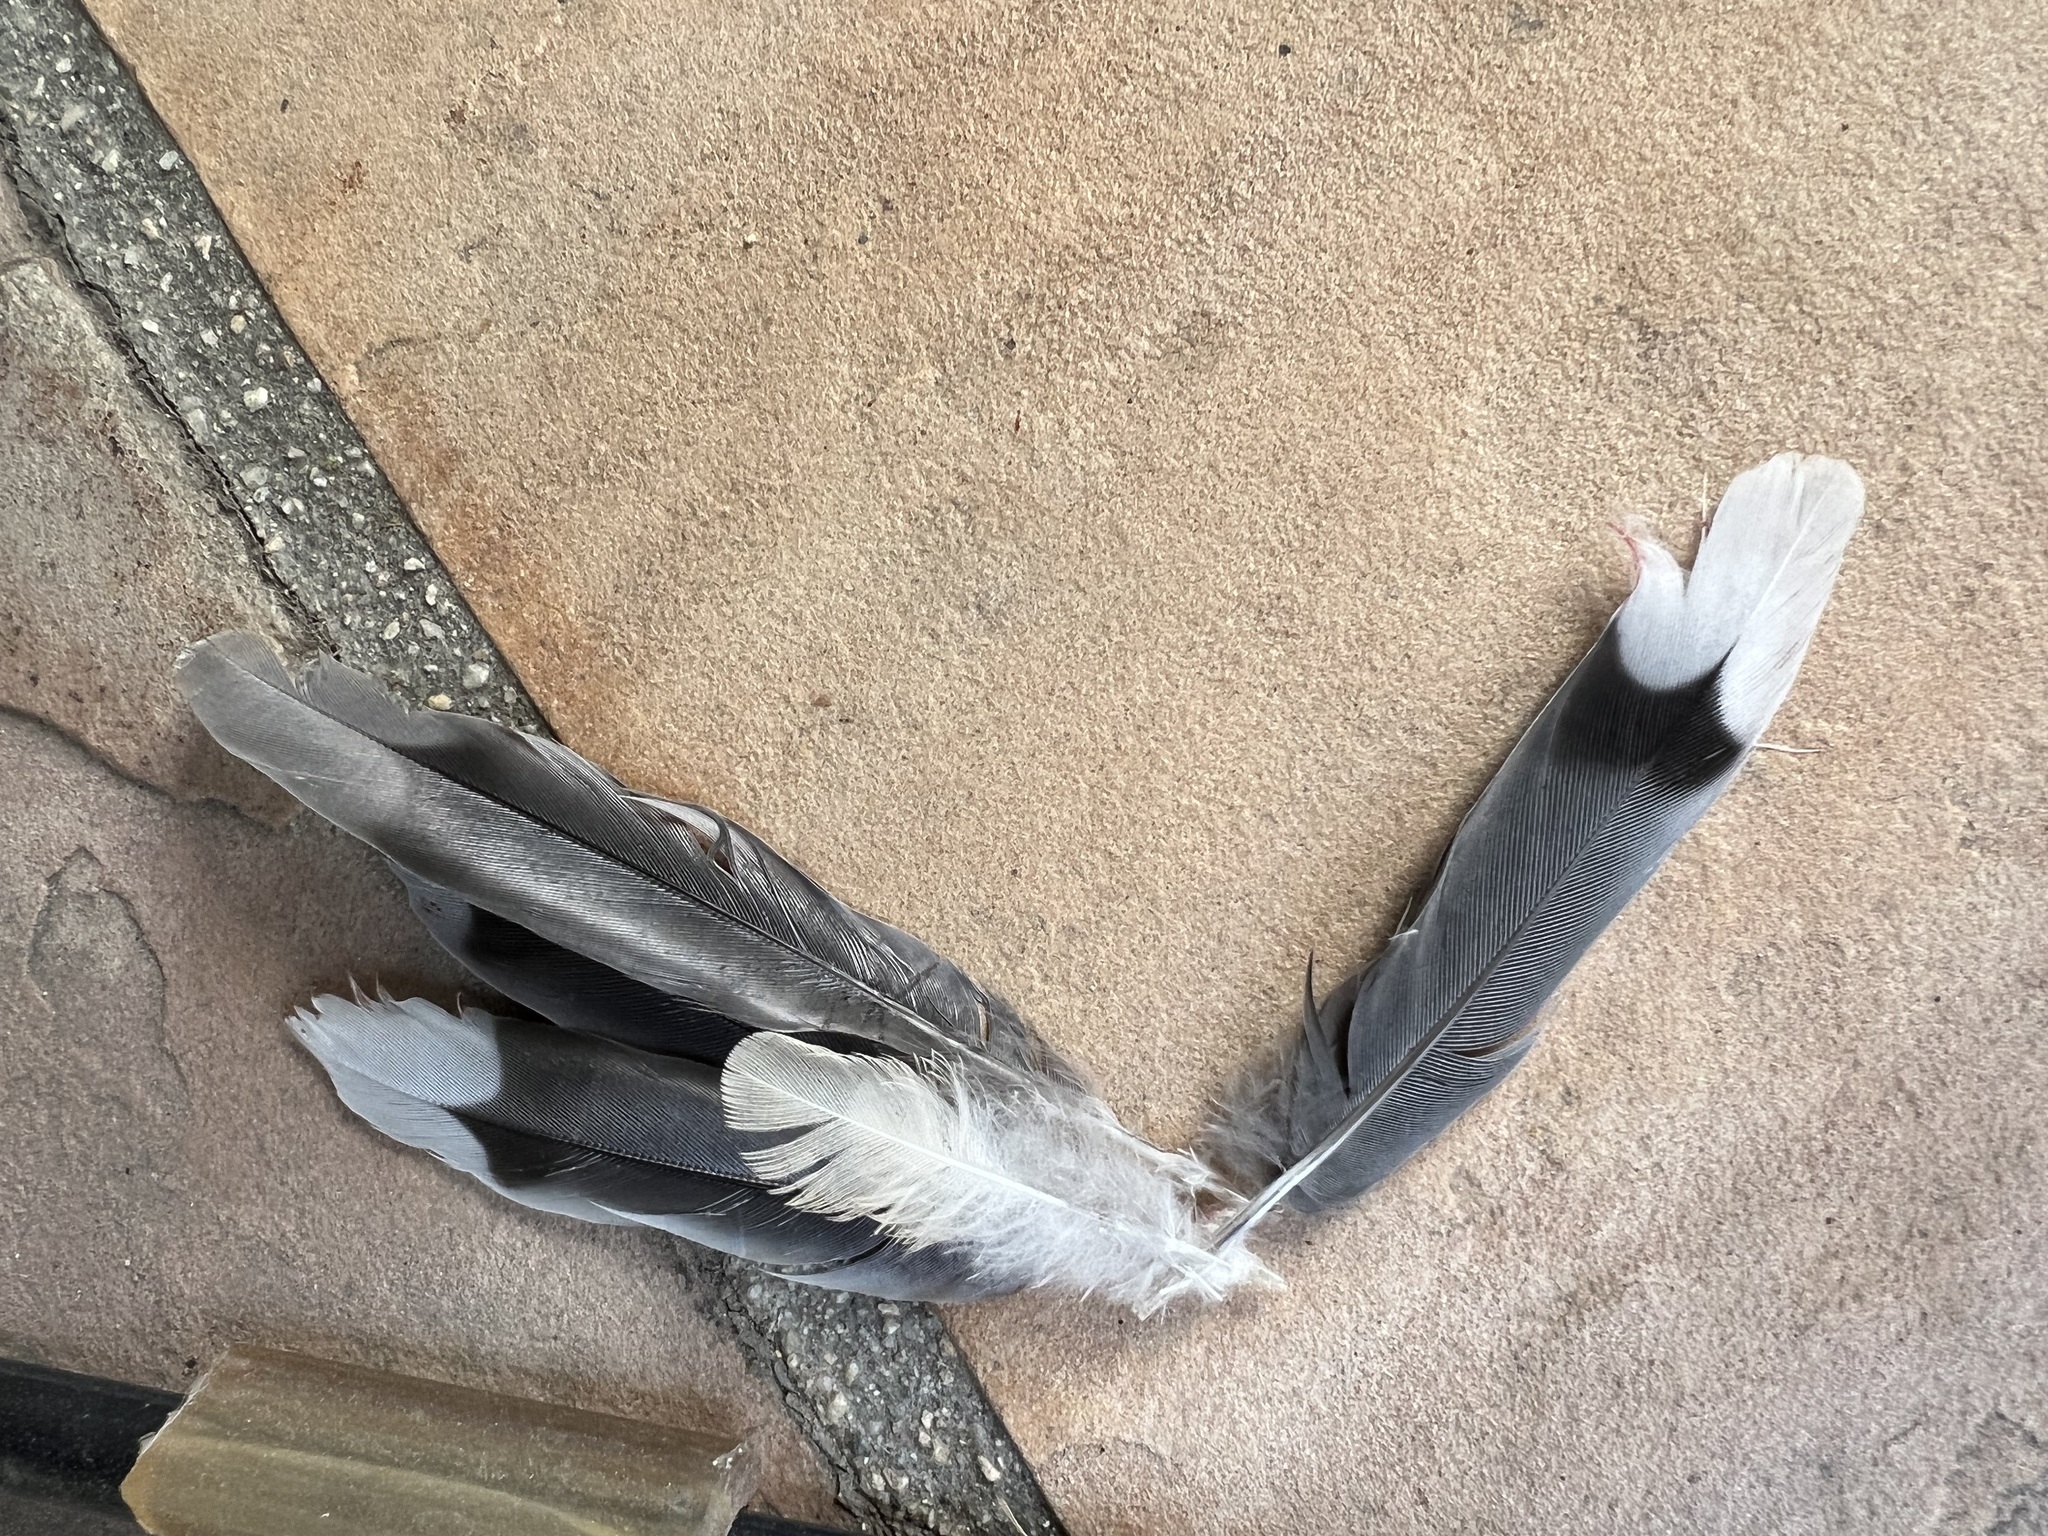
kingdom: Animalia
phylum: Chordata
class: Aves
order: Columbiformes
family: Columbidae
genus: Zenaida
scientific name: Zenaida macroura
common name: Mourning dove
